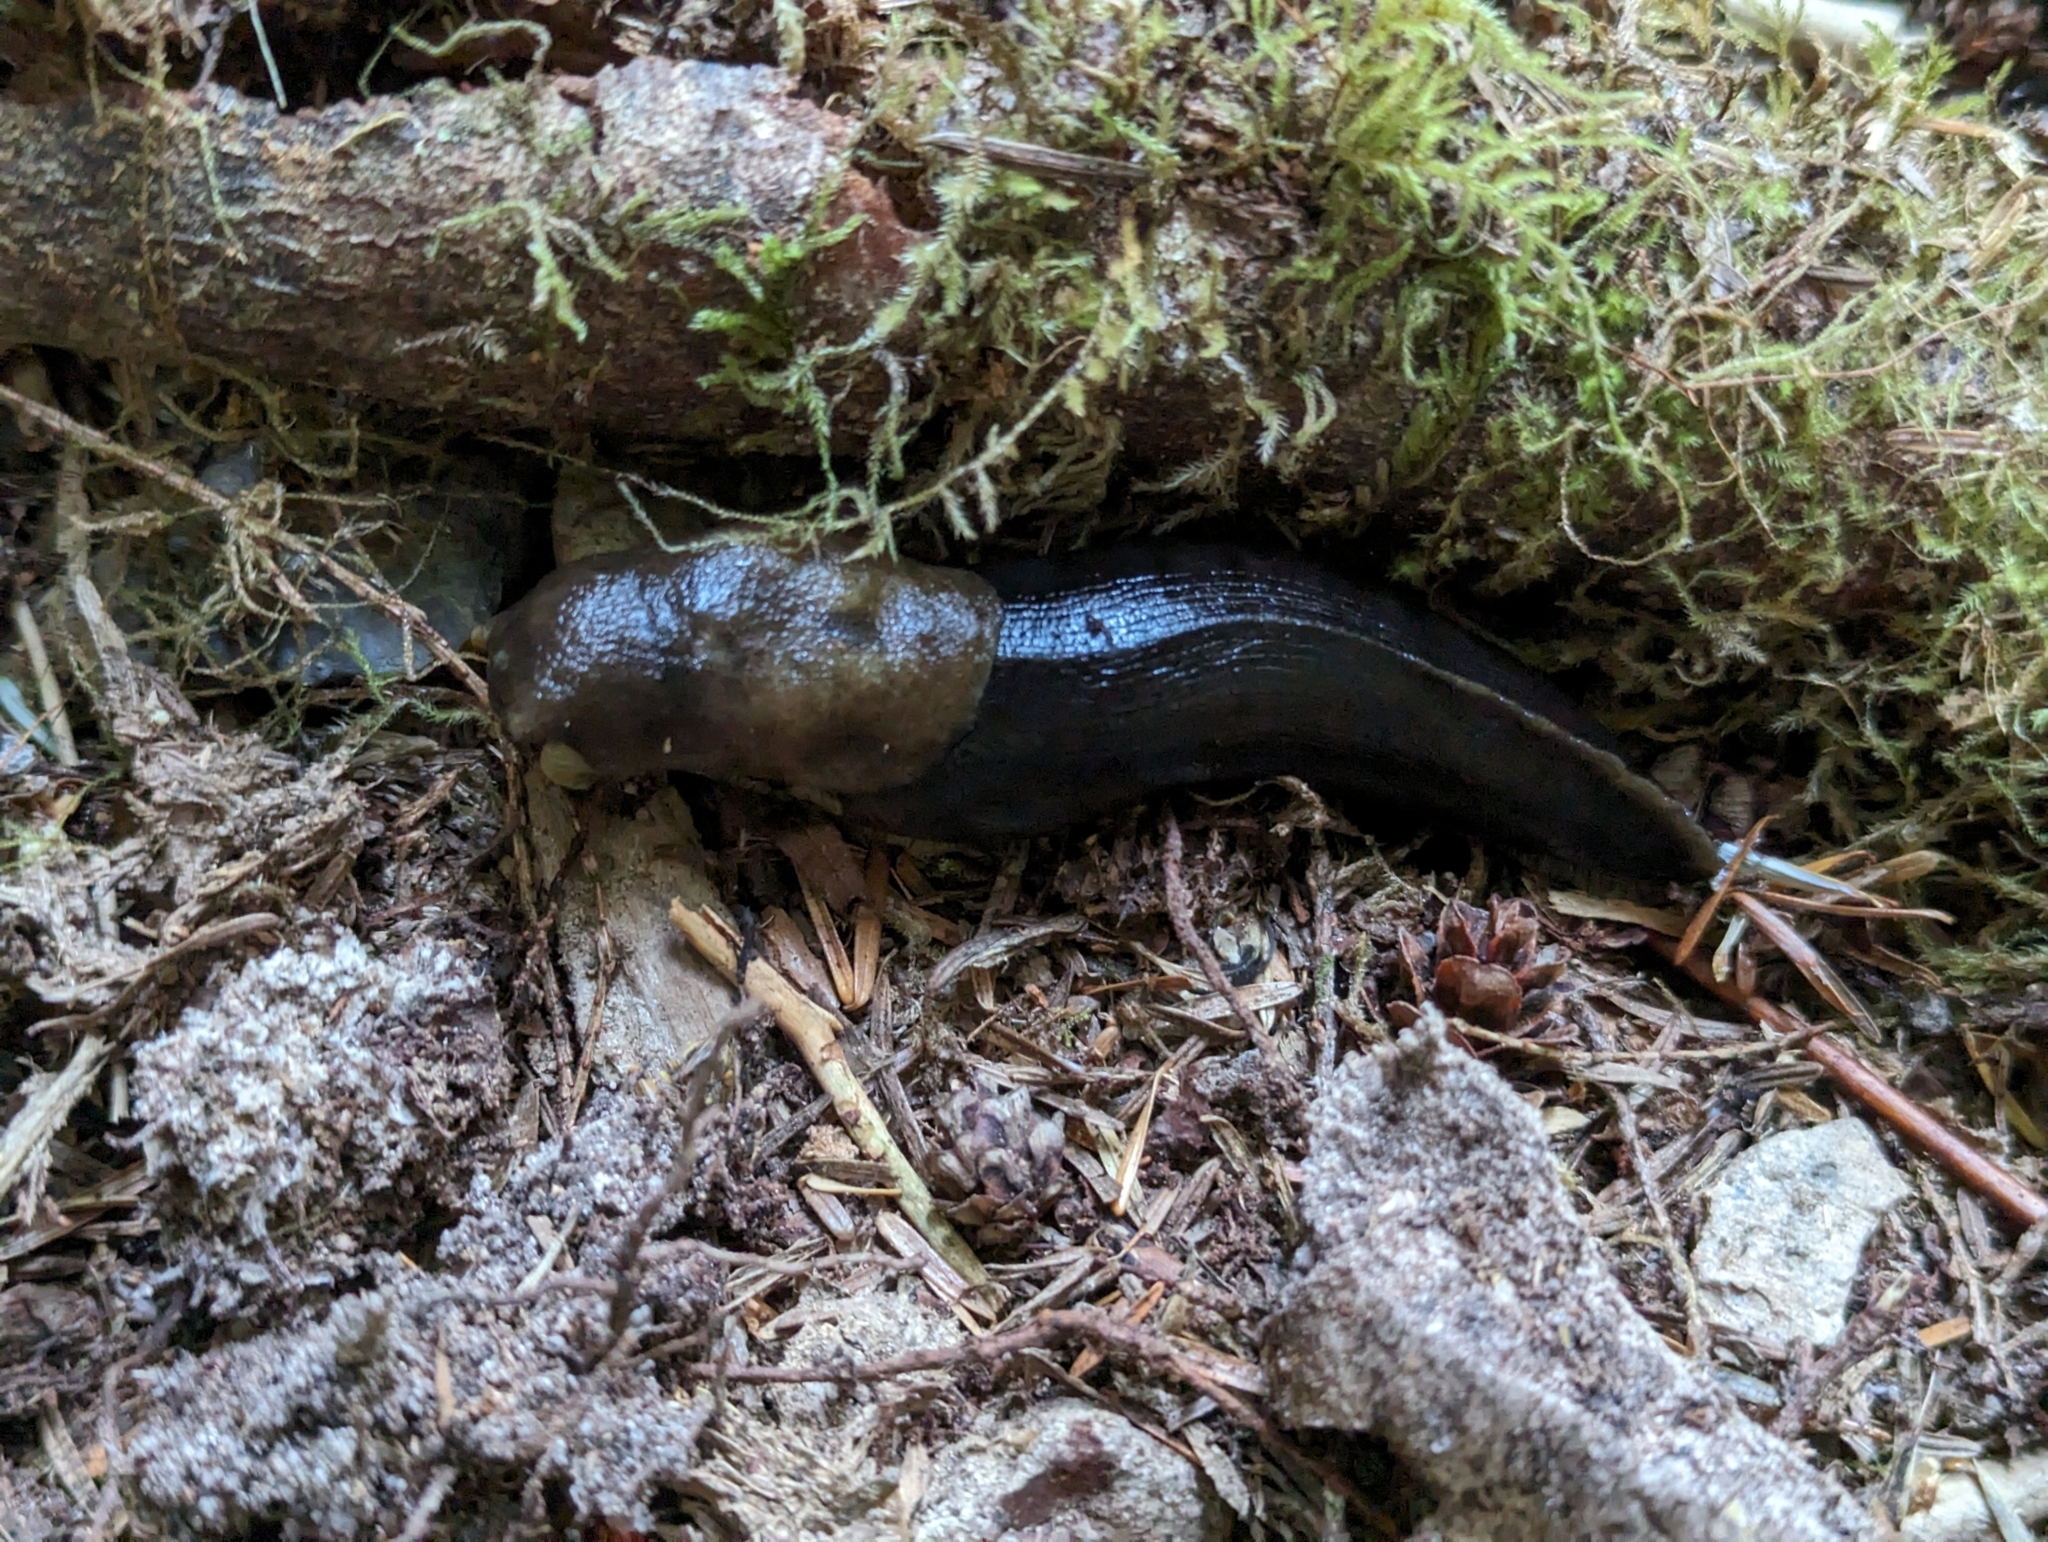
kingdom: Animalia
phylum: Mollusca
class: Gastropoda
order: Stylommatophora
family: Ariolimacidae
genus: Ariolimax
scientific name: Ariolimax columbianus
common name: Pacific banana slug
